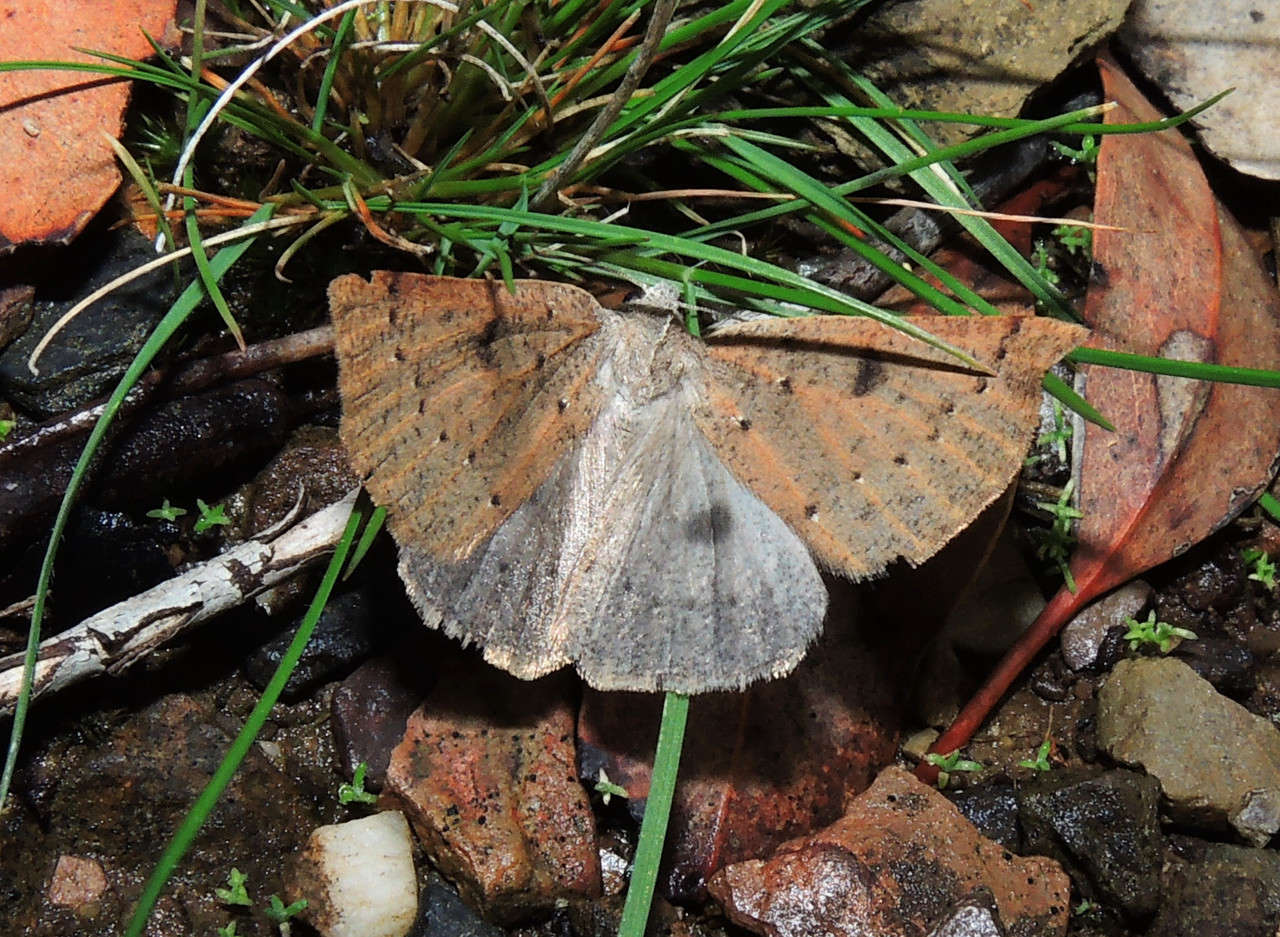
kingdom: Animalia
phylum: Arthropoda
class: Insecta
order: Lepidoptera
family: Geometridae
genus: Androchela
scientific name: Androchela milvaria
